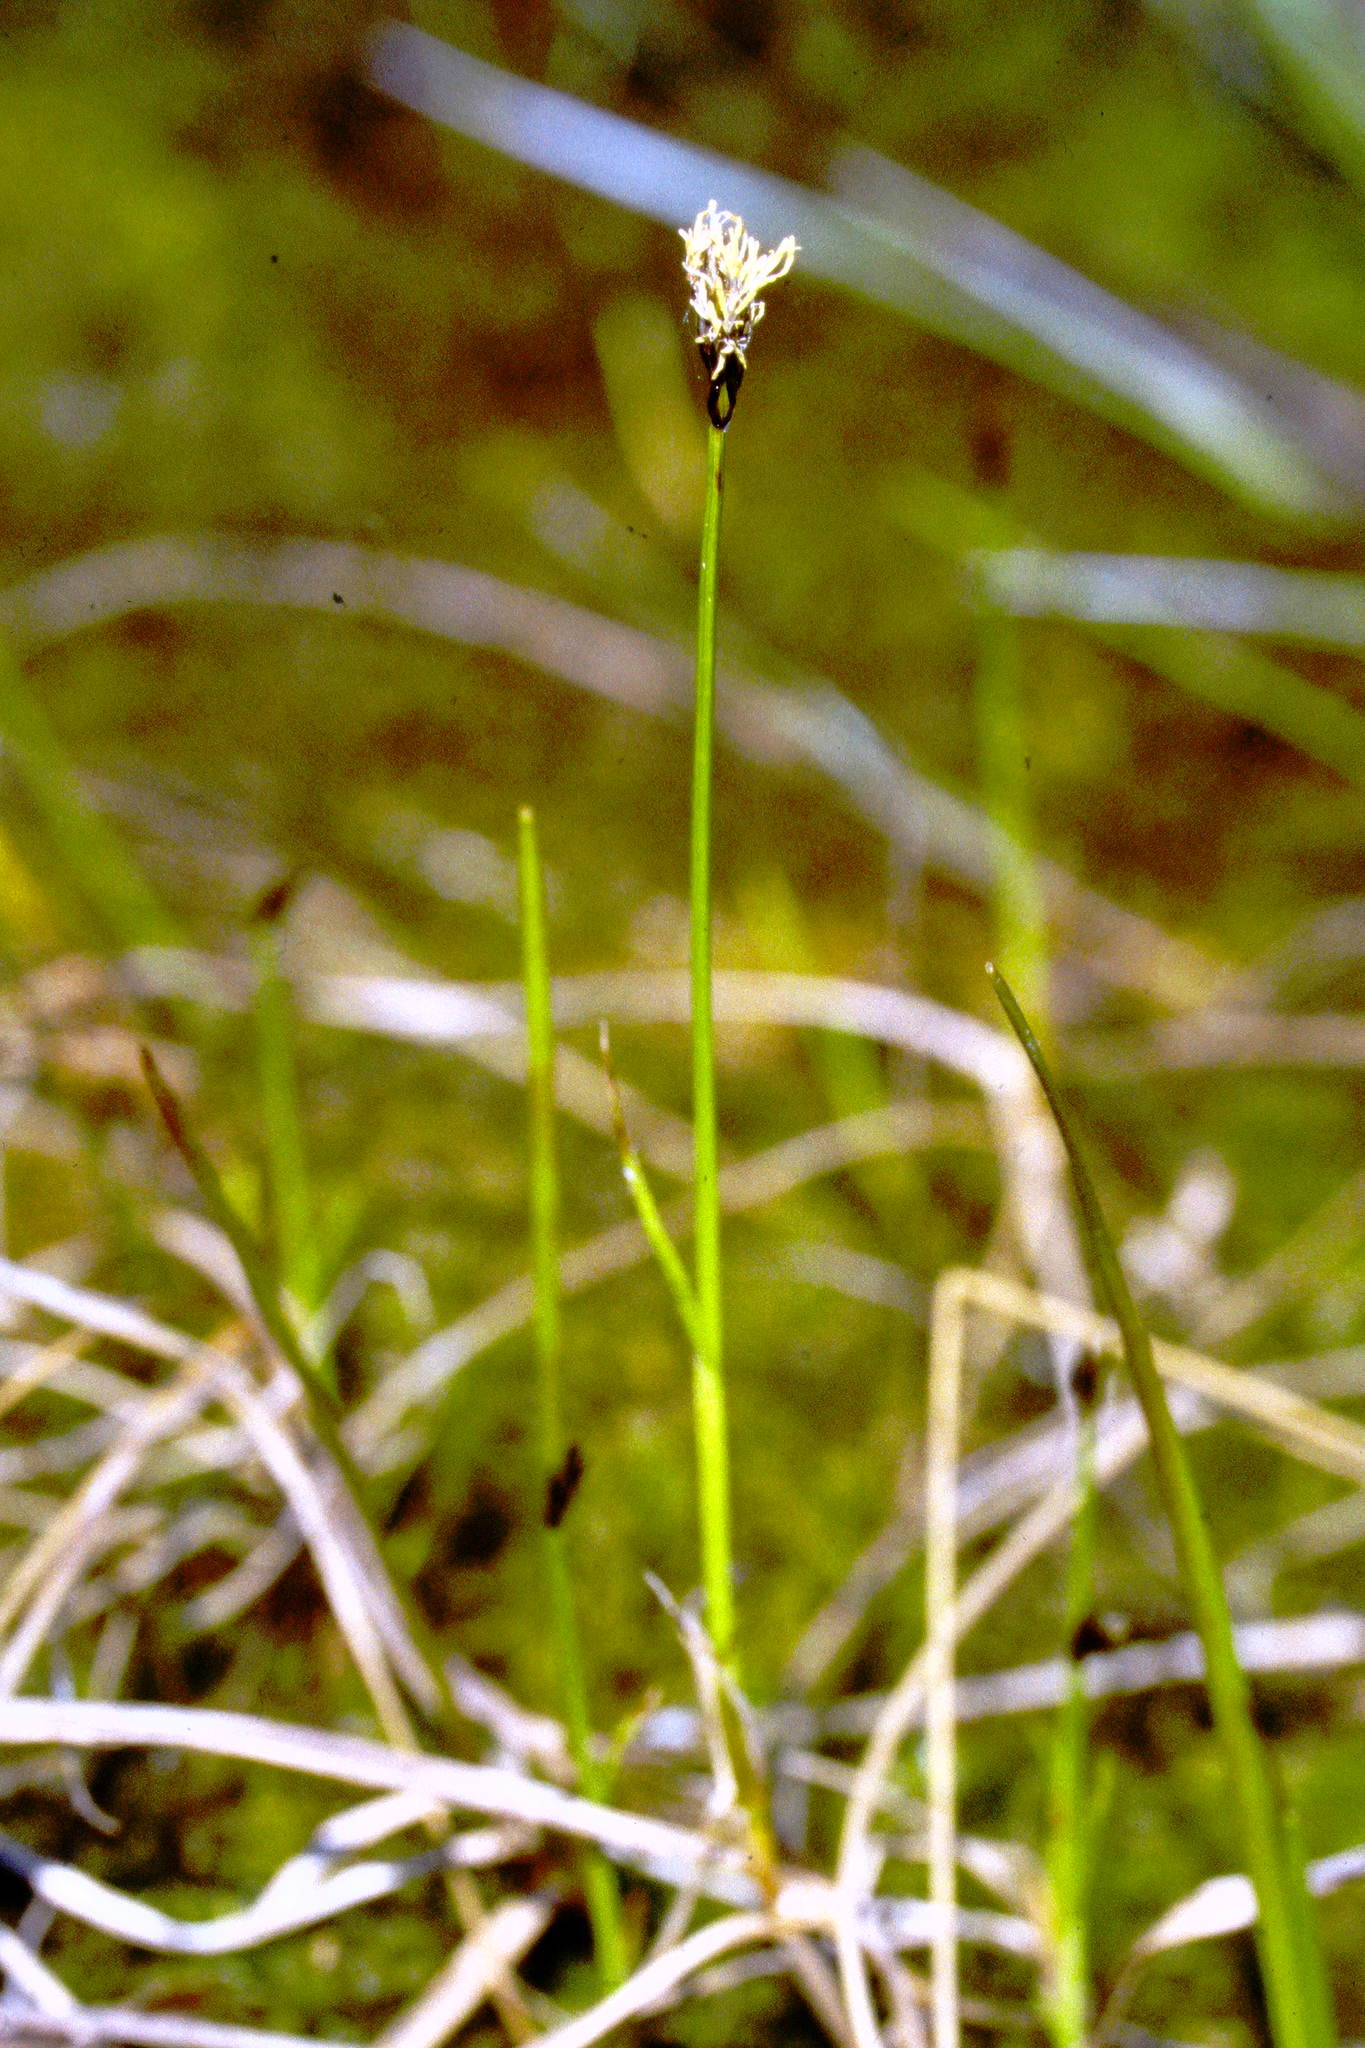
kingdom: Plantae
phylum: Tracheophyta
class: Liliopsida
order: Poales
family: Cyperaceae
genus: Carex
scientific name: Carex chordorrhiza
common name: String sedge
